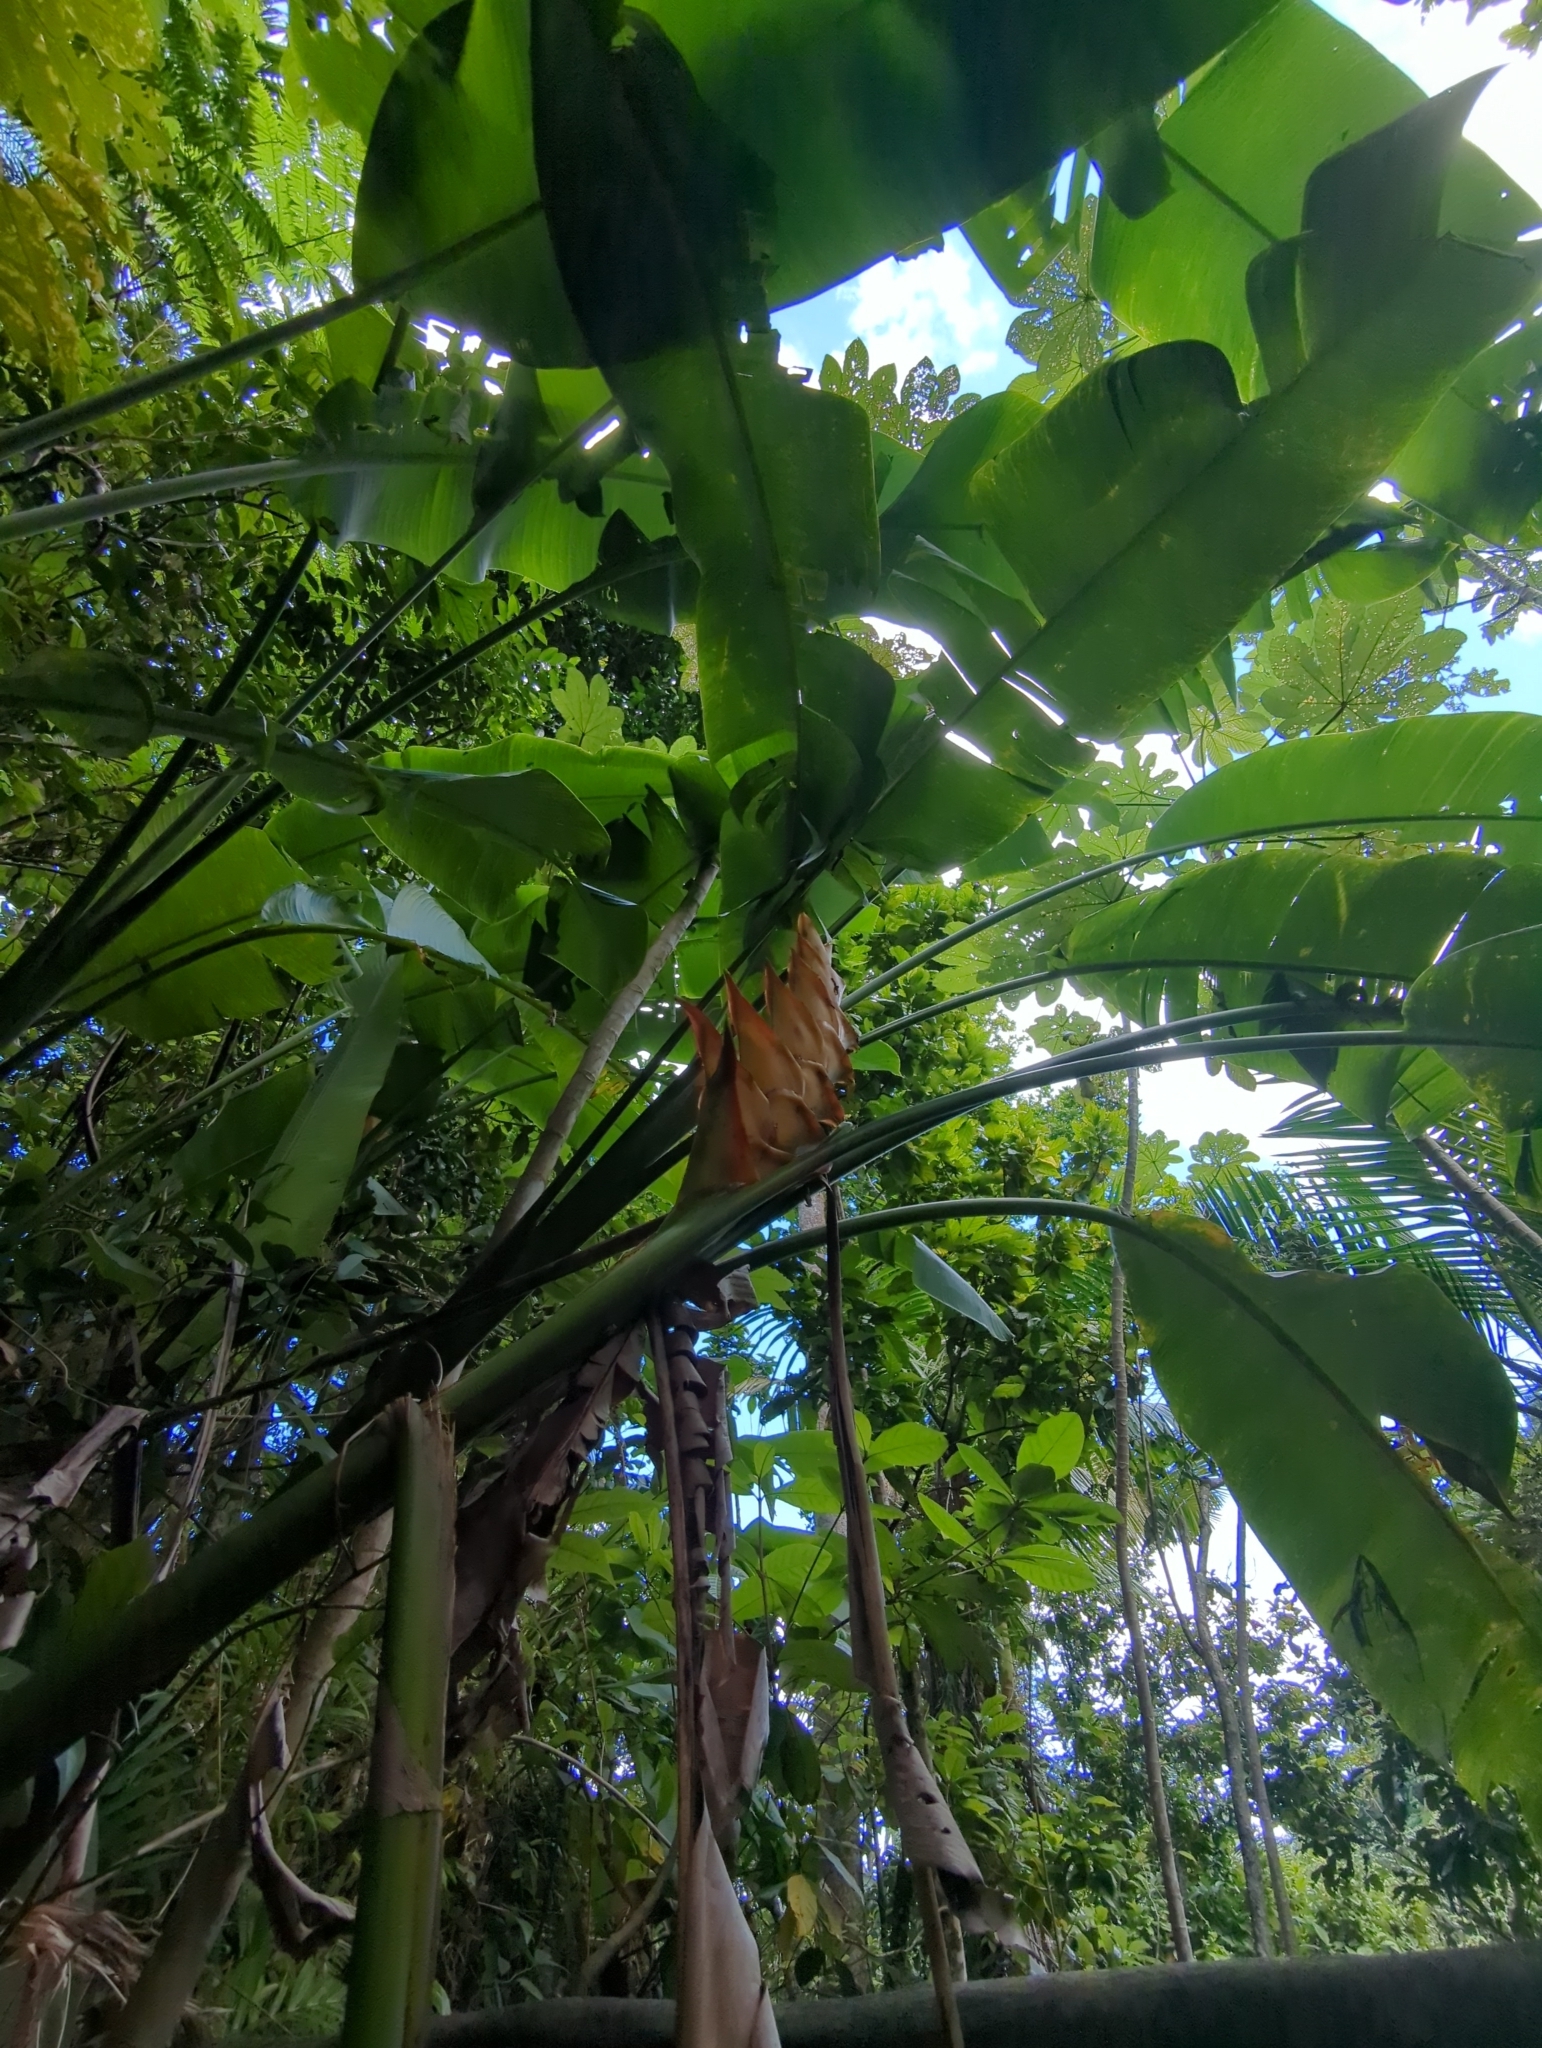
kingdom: Plantae
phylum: Tracheophyta
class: Liliopsida
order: Zingiberales
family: Heliconiaceae
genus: Heliconia
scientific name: Heliconia caribaea
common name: Wild plantain
